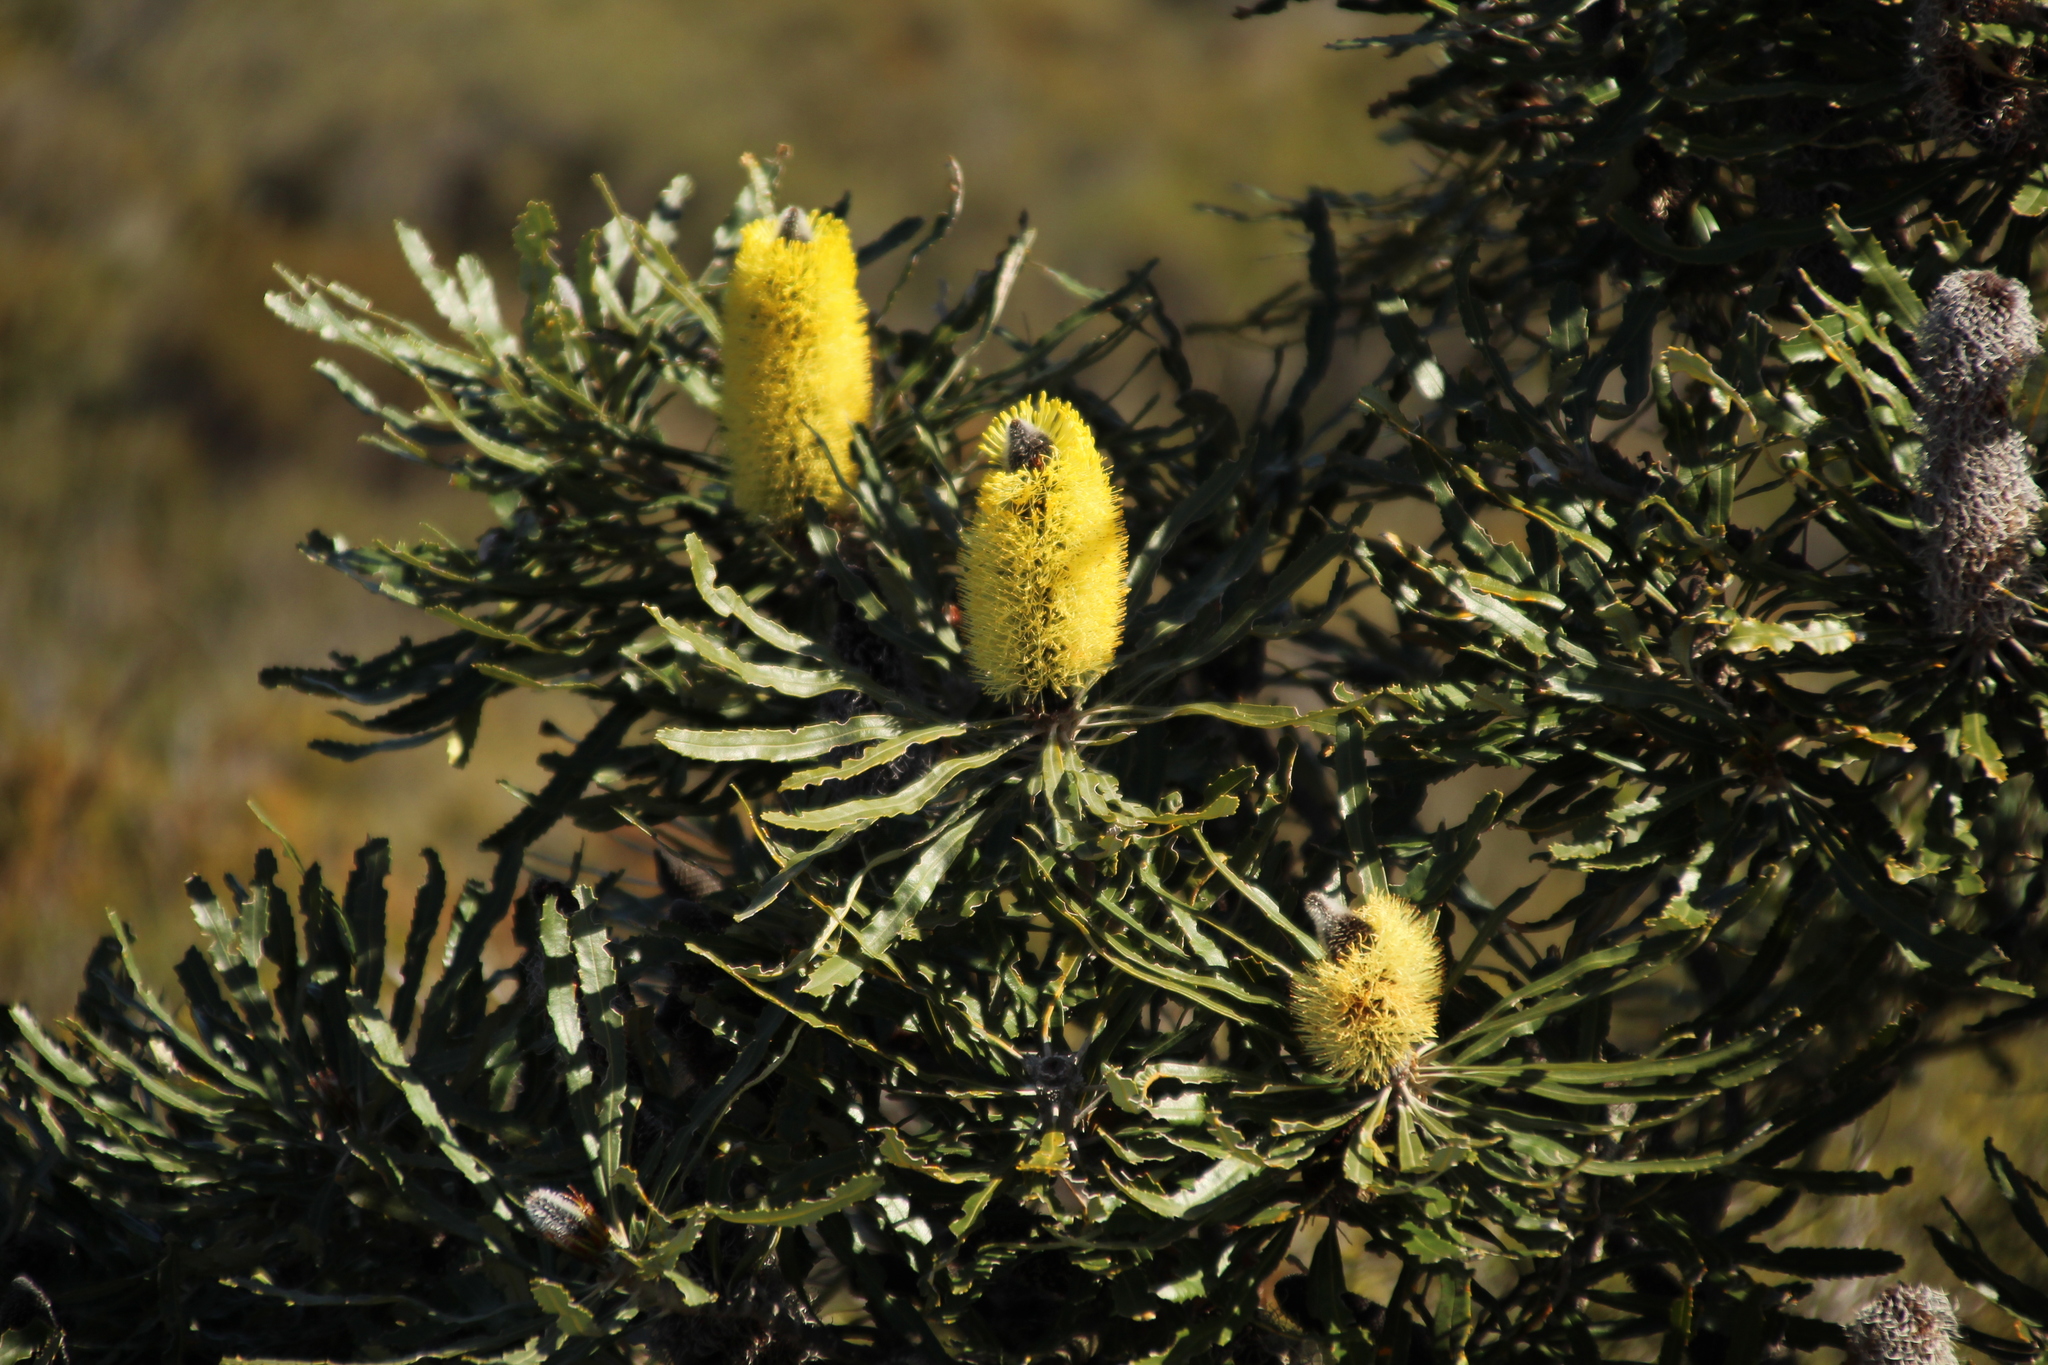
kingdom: Plantae
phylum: Tracheophyta
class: Magnoliopsida
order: Proteales
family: Proteaceae
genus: Banksia
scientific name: Banksia attenuata
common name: Coast banksia
